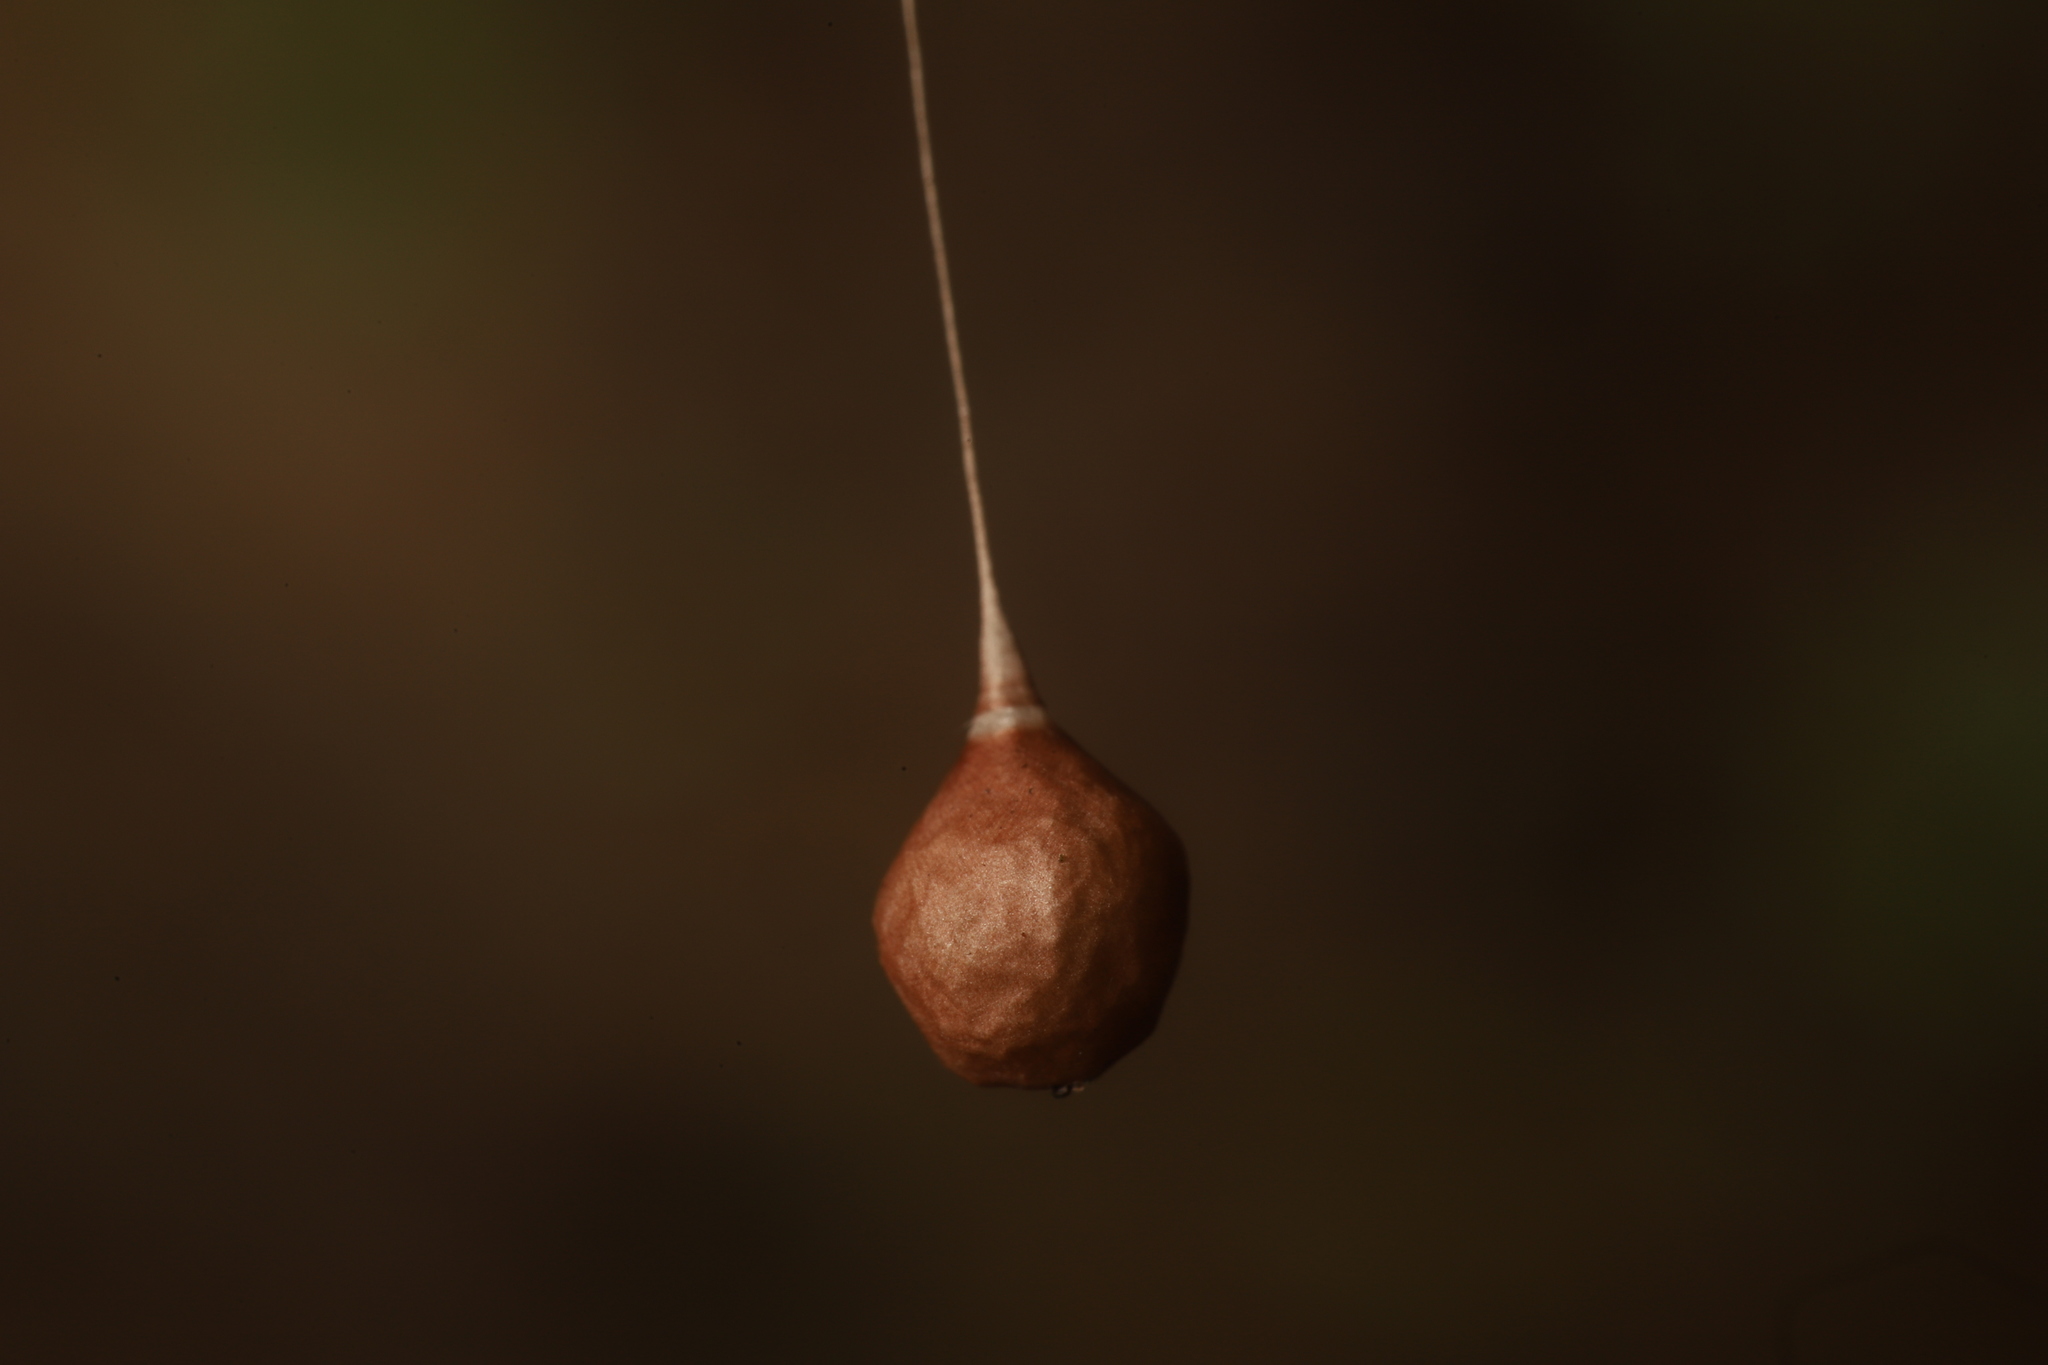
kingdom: Animalia
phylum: Arthropoda
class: Arachnida
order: Araneae
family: Theridiosomatidae
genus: Theridiosoma
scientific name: Theridiosoma gemmosum
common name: Ray spider
